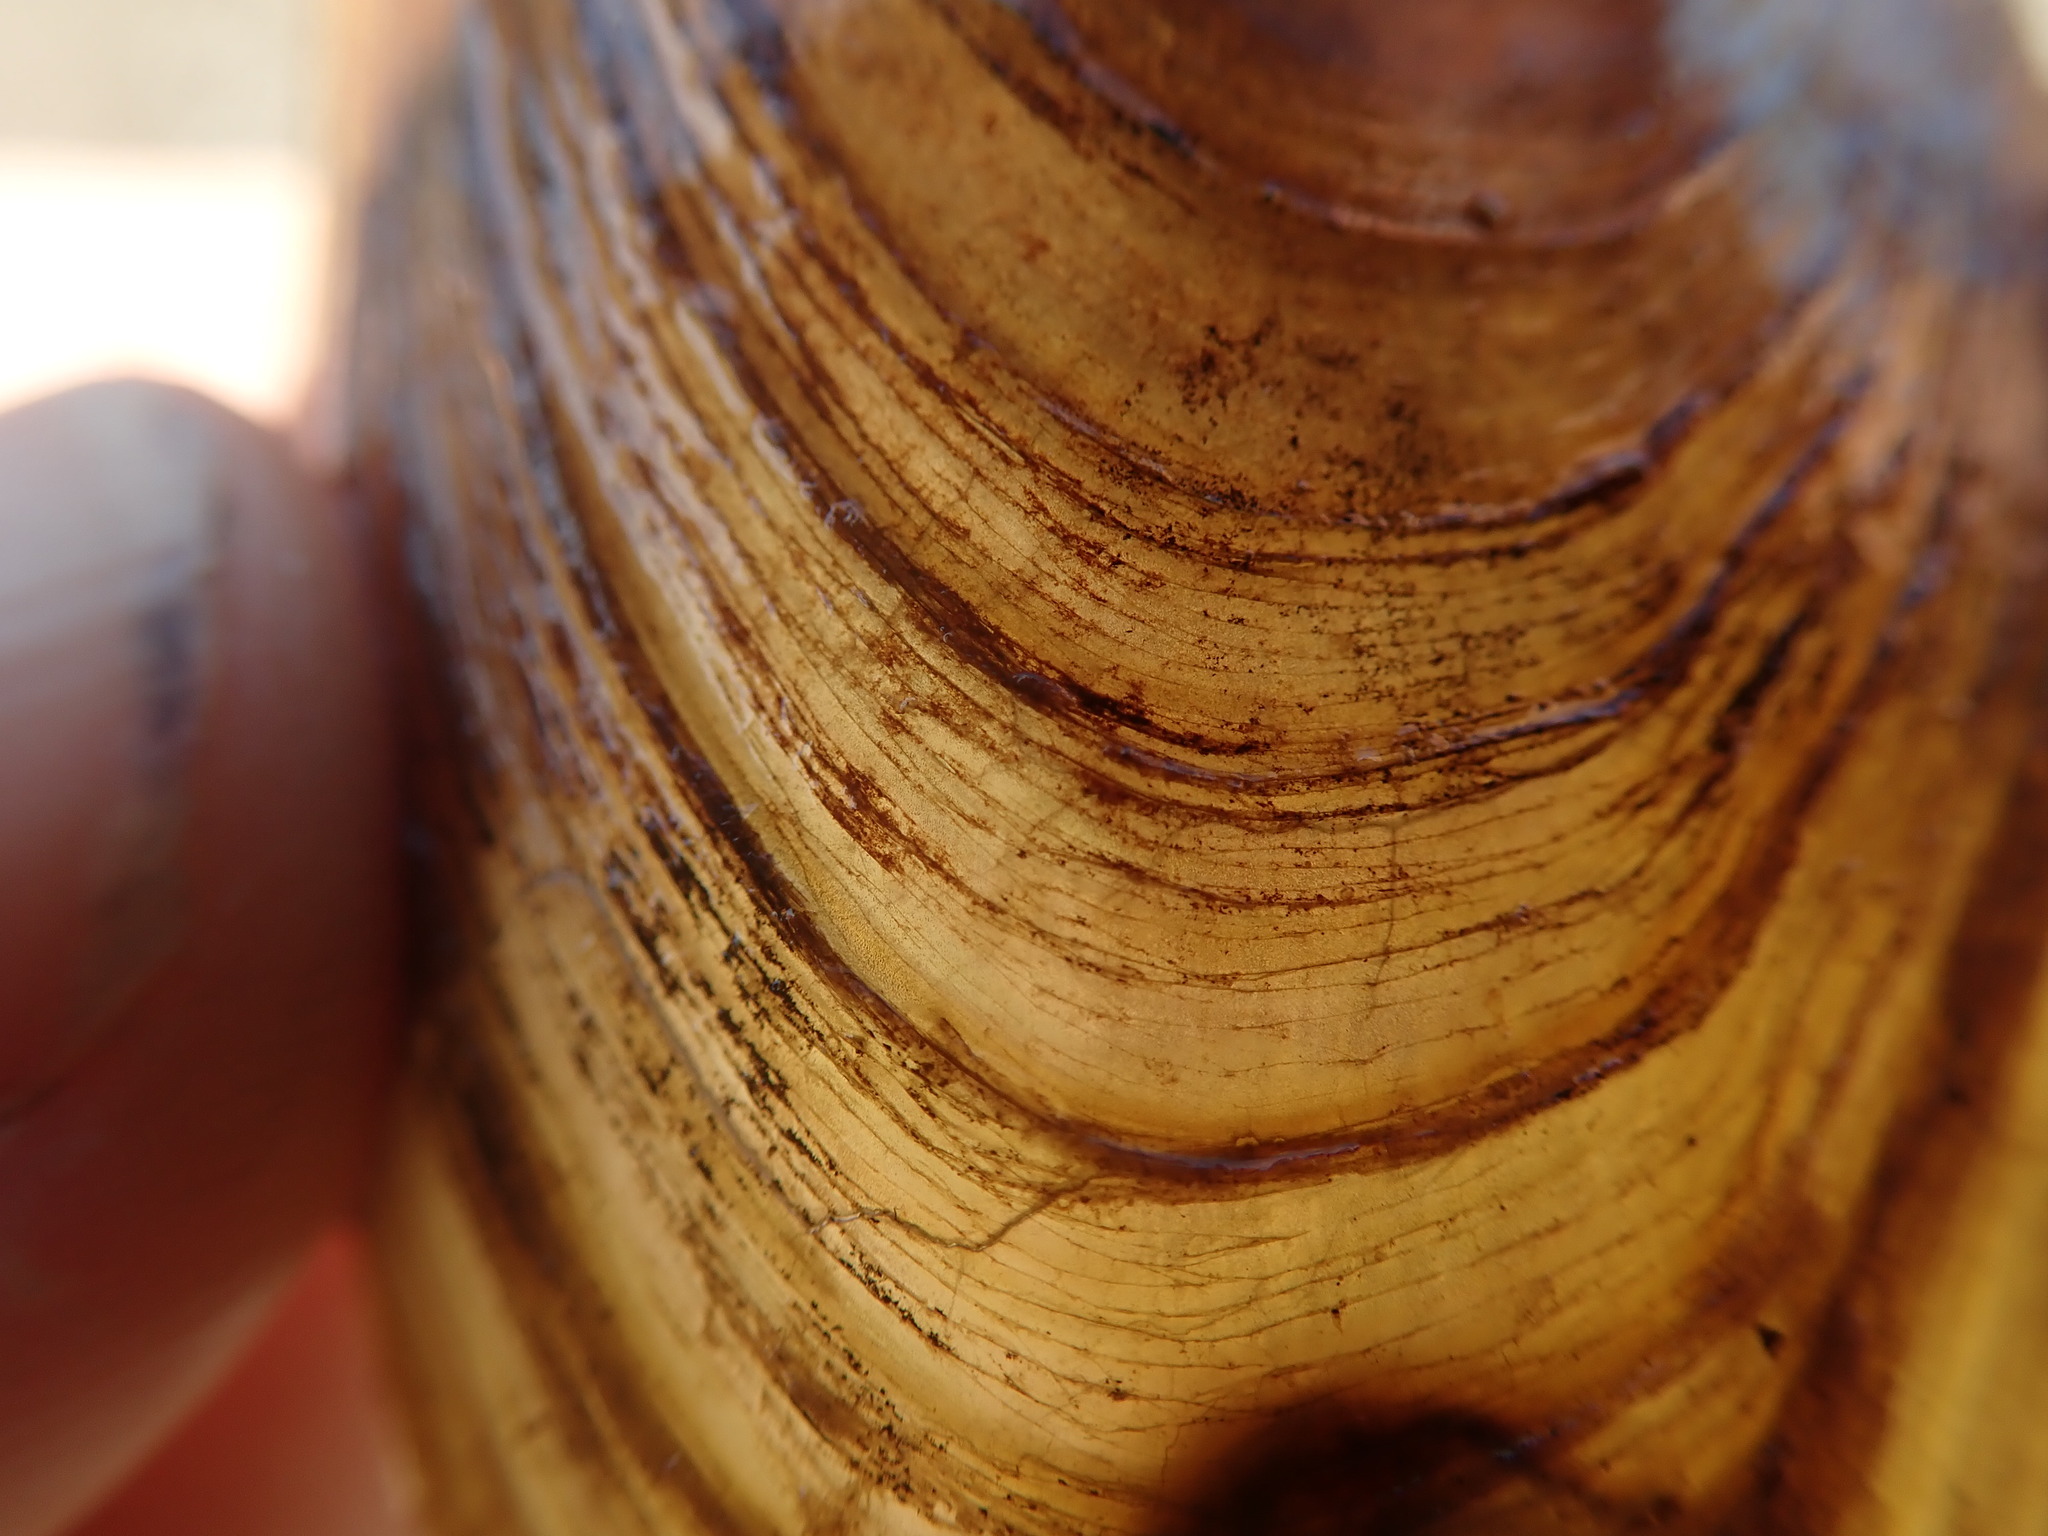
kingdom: Animalia
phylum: Mollusca
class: Bivalvia
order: Unionida
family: Unionidae
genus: Anodonta
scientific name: Anodonta kennerlyi
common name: Western floater
